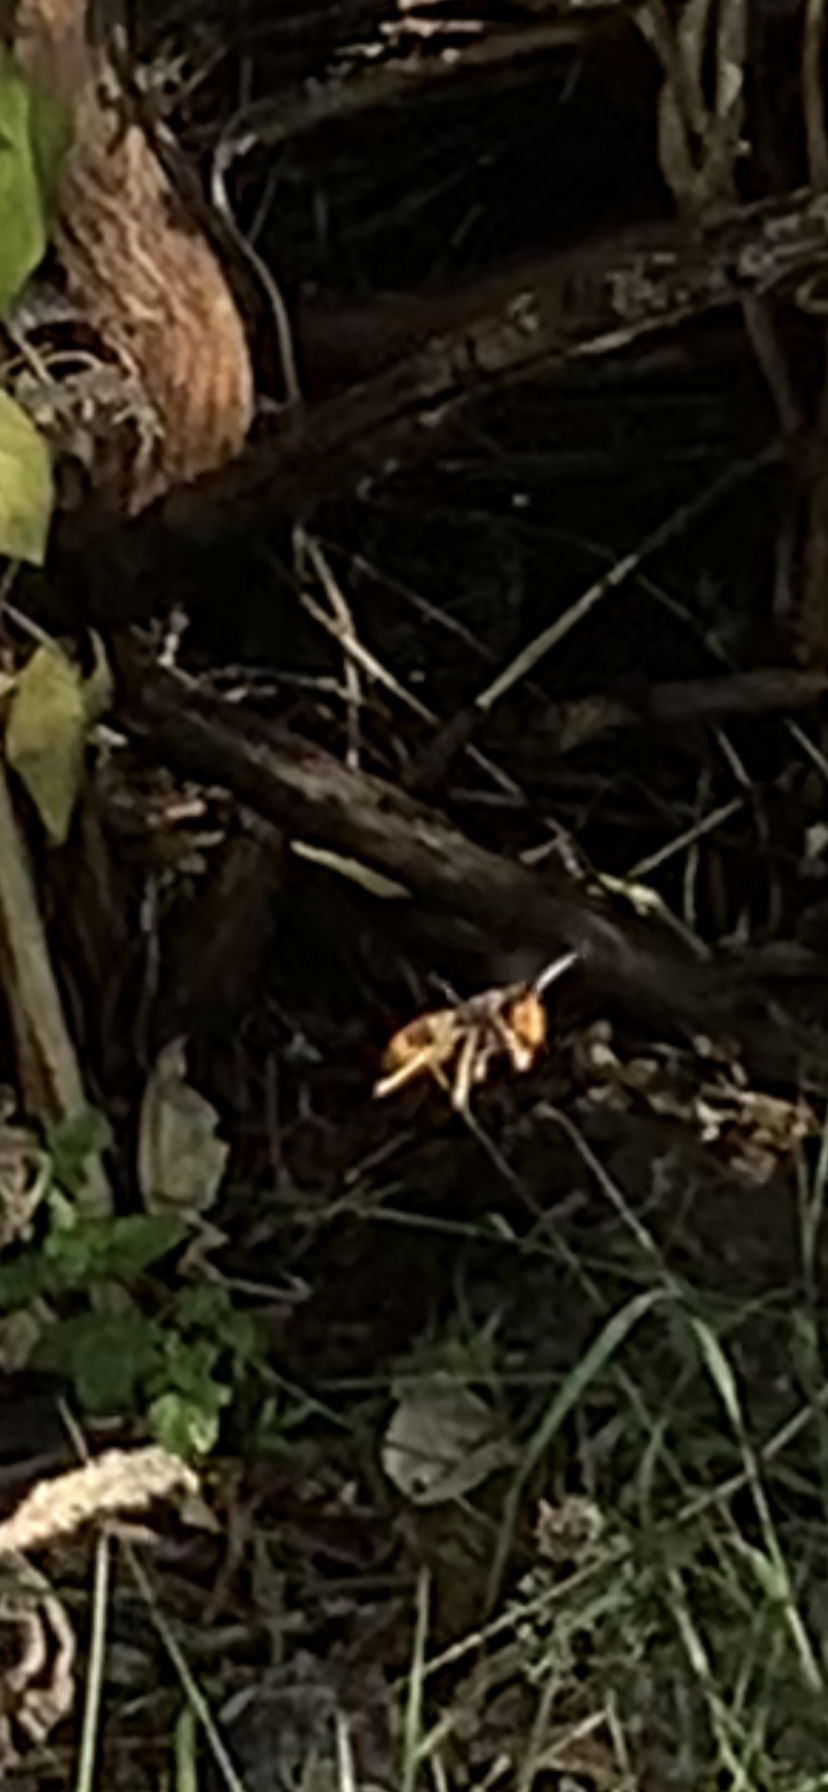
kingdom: Animalia
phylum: Arthropoda
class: Insecta
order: Hymenoptera
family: Vespidae
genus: Vespa
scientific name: Vespa velutina
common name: Asian hornet
